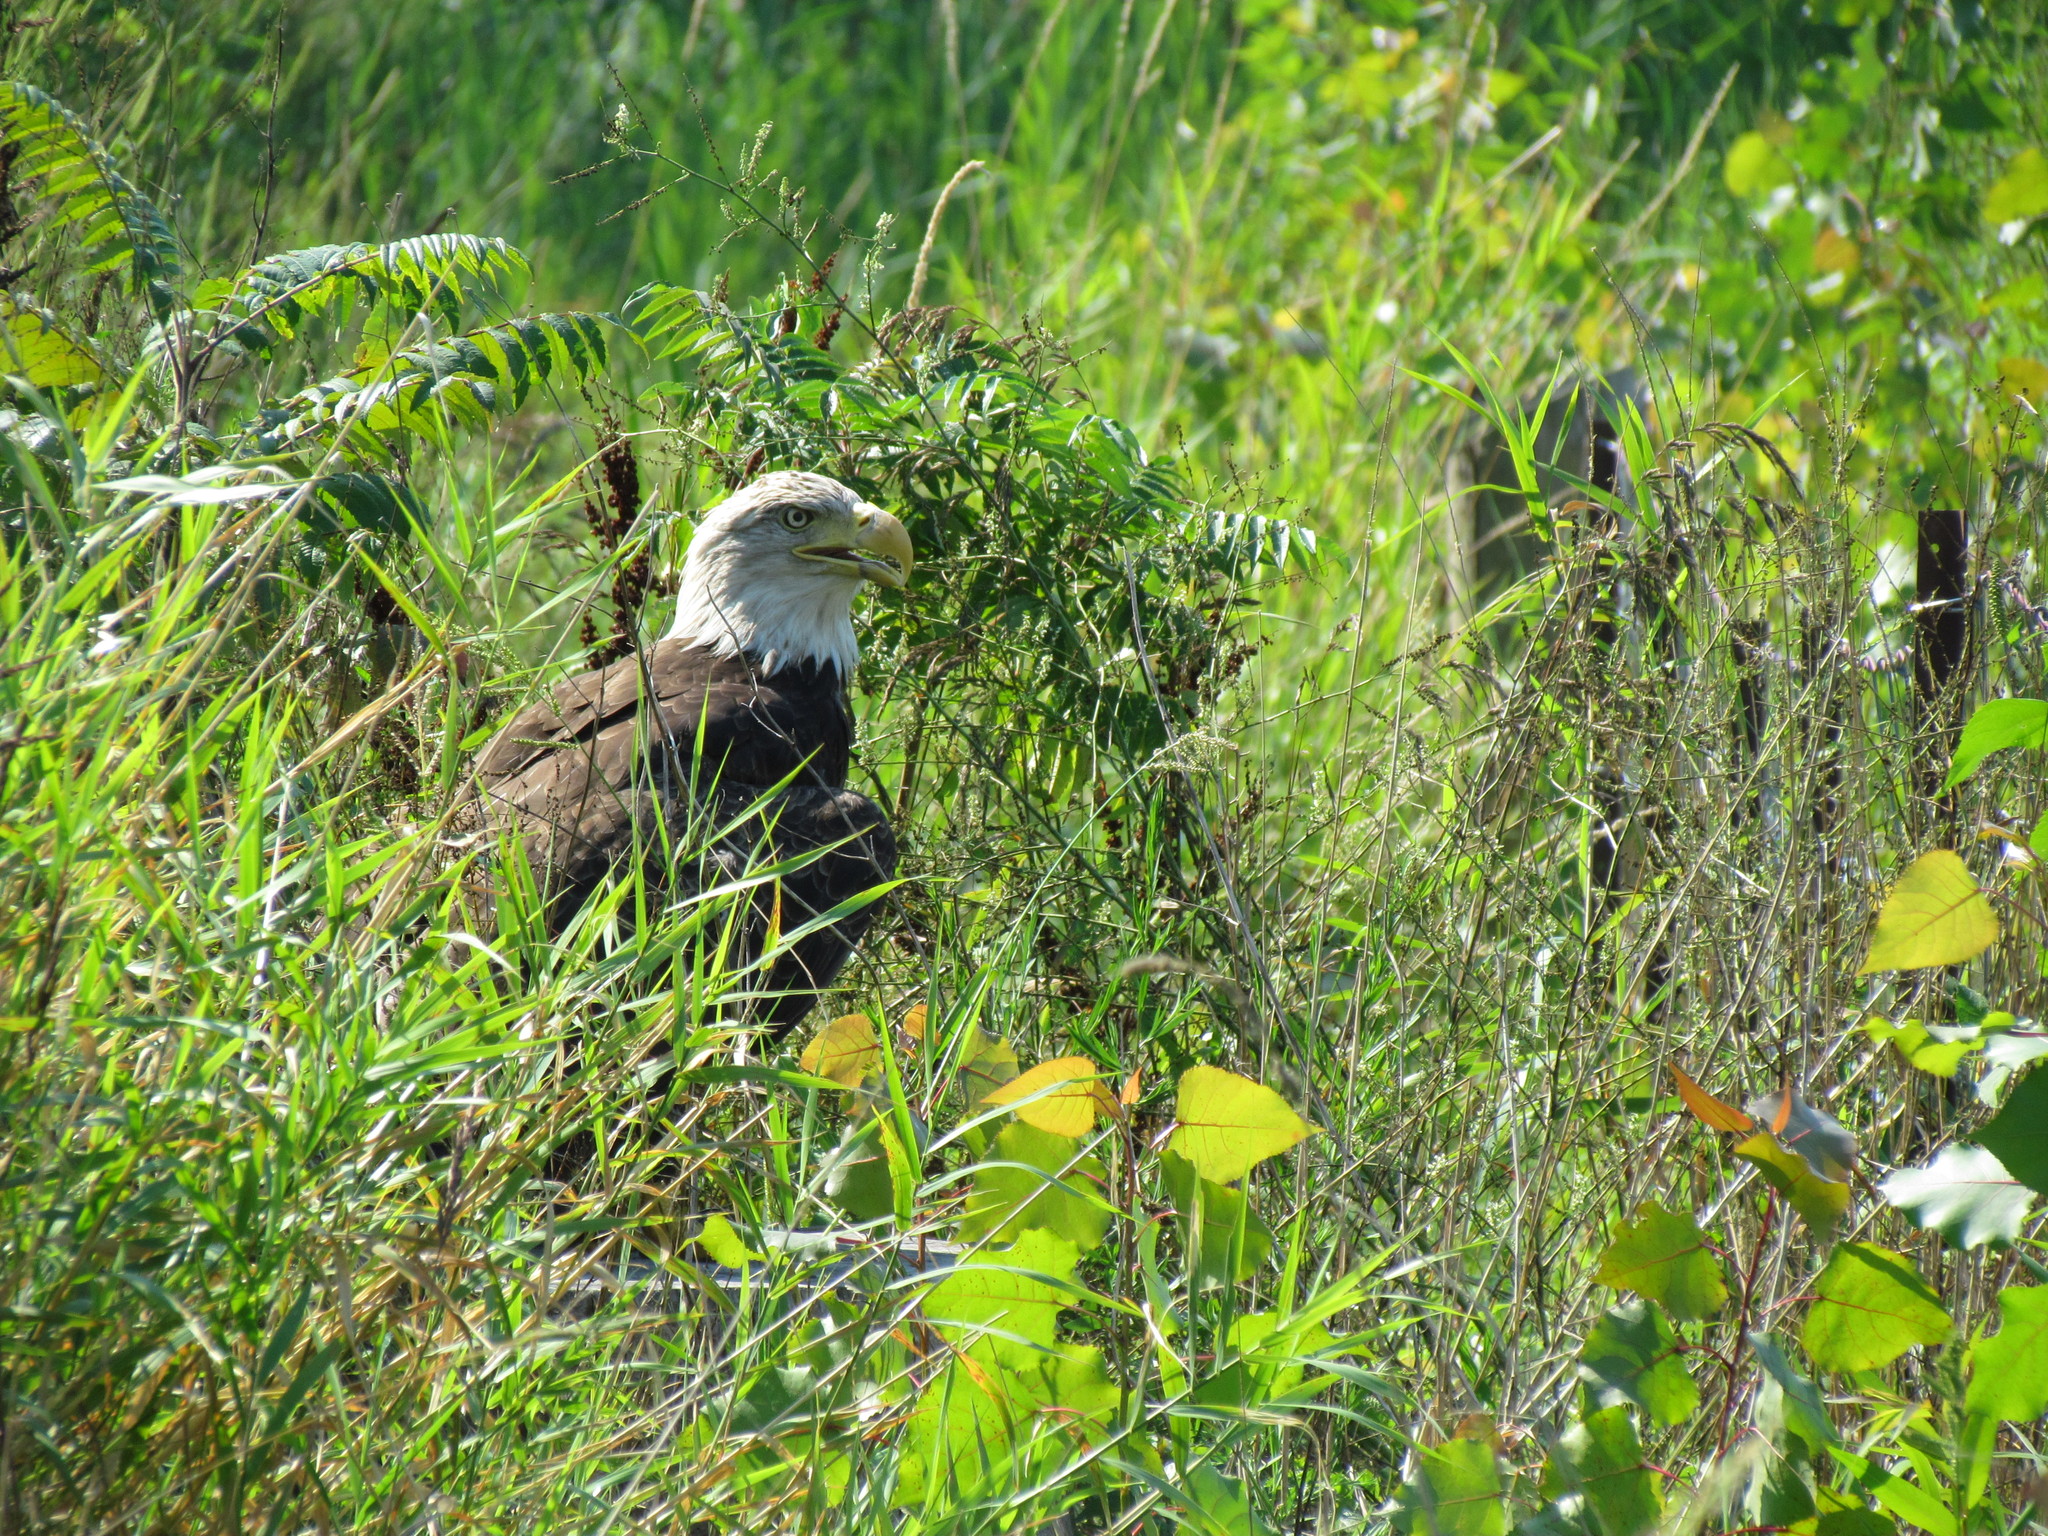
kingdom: Animalia
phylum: Chordata
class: Aves
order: Accipitriformes
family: Accipitridae
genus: Haliaeetus
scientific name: Haliaeetus leucocephalus
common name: Bald eagle
